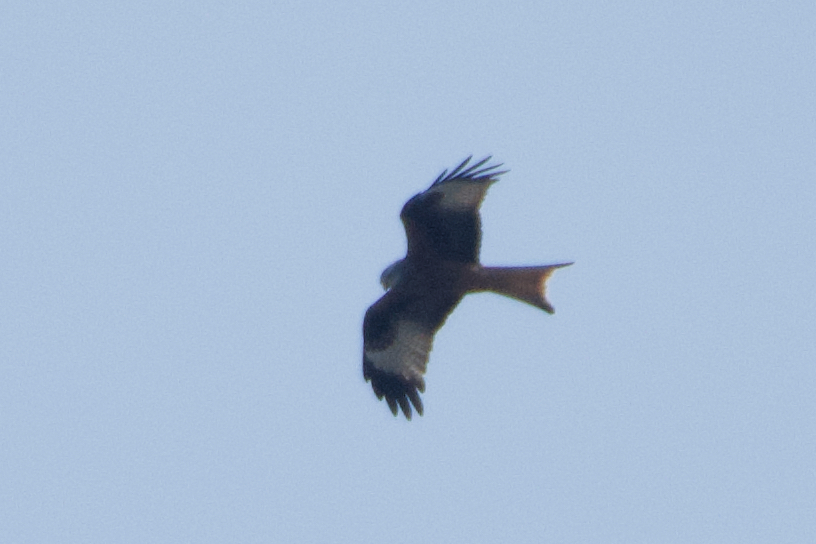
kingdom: Animalia
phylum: Chordata
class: Aves
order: Accipitriformes
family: Accipitridae
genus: Milvus
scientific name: Milvus milvus
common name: Red kite
